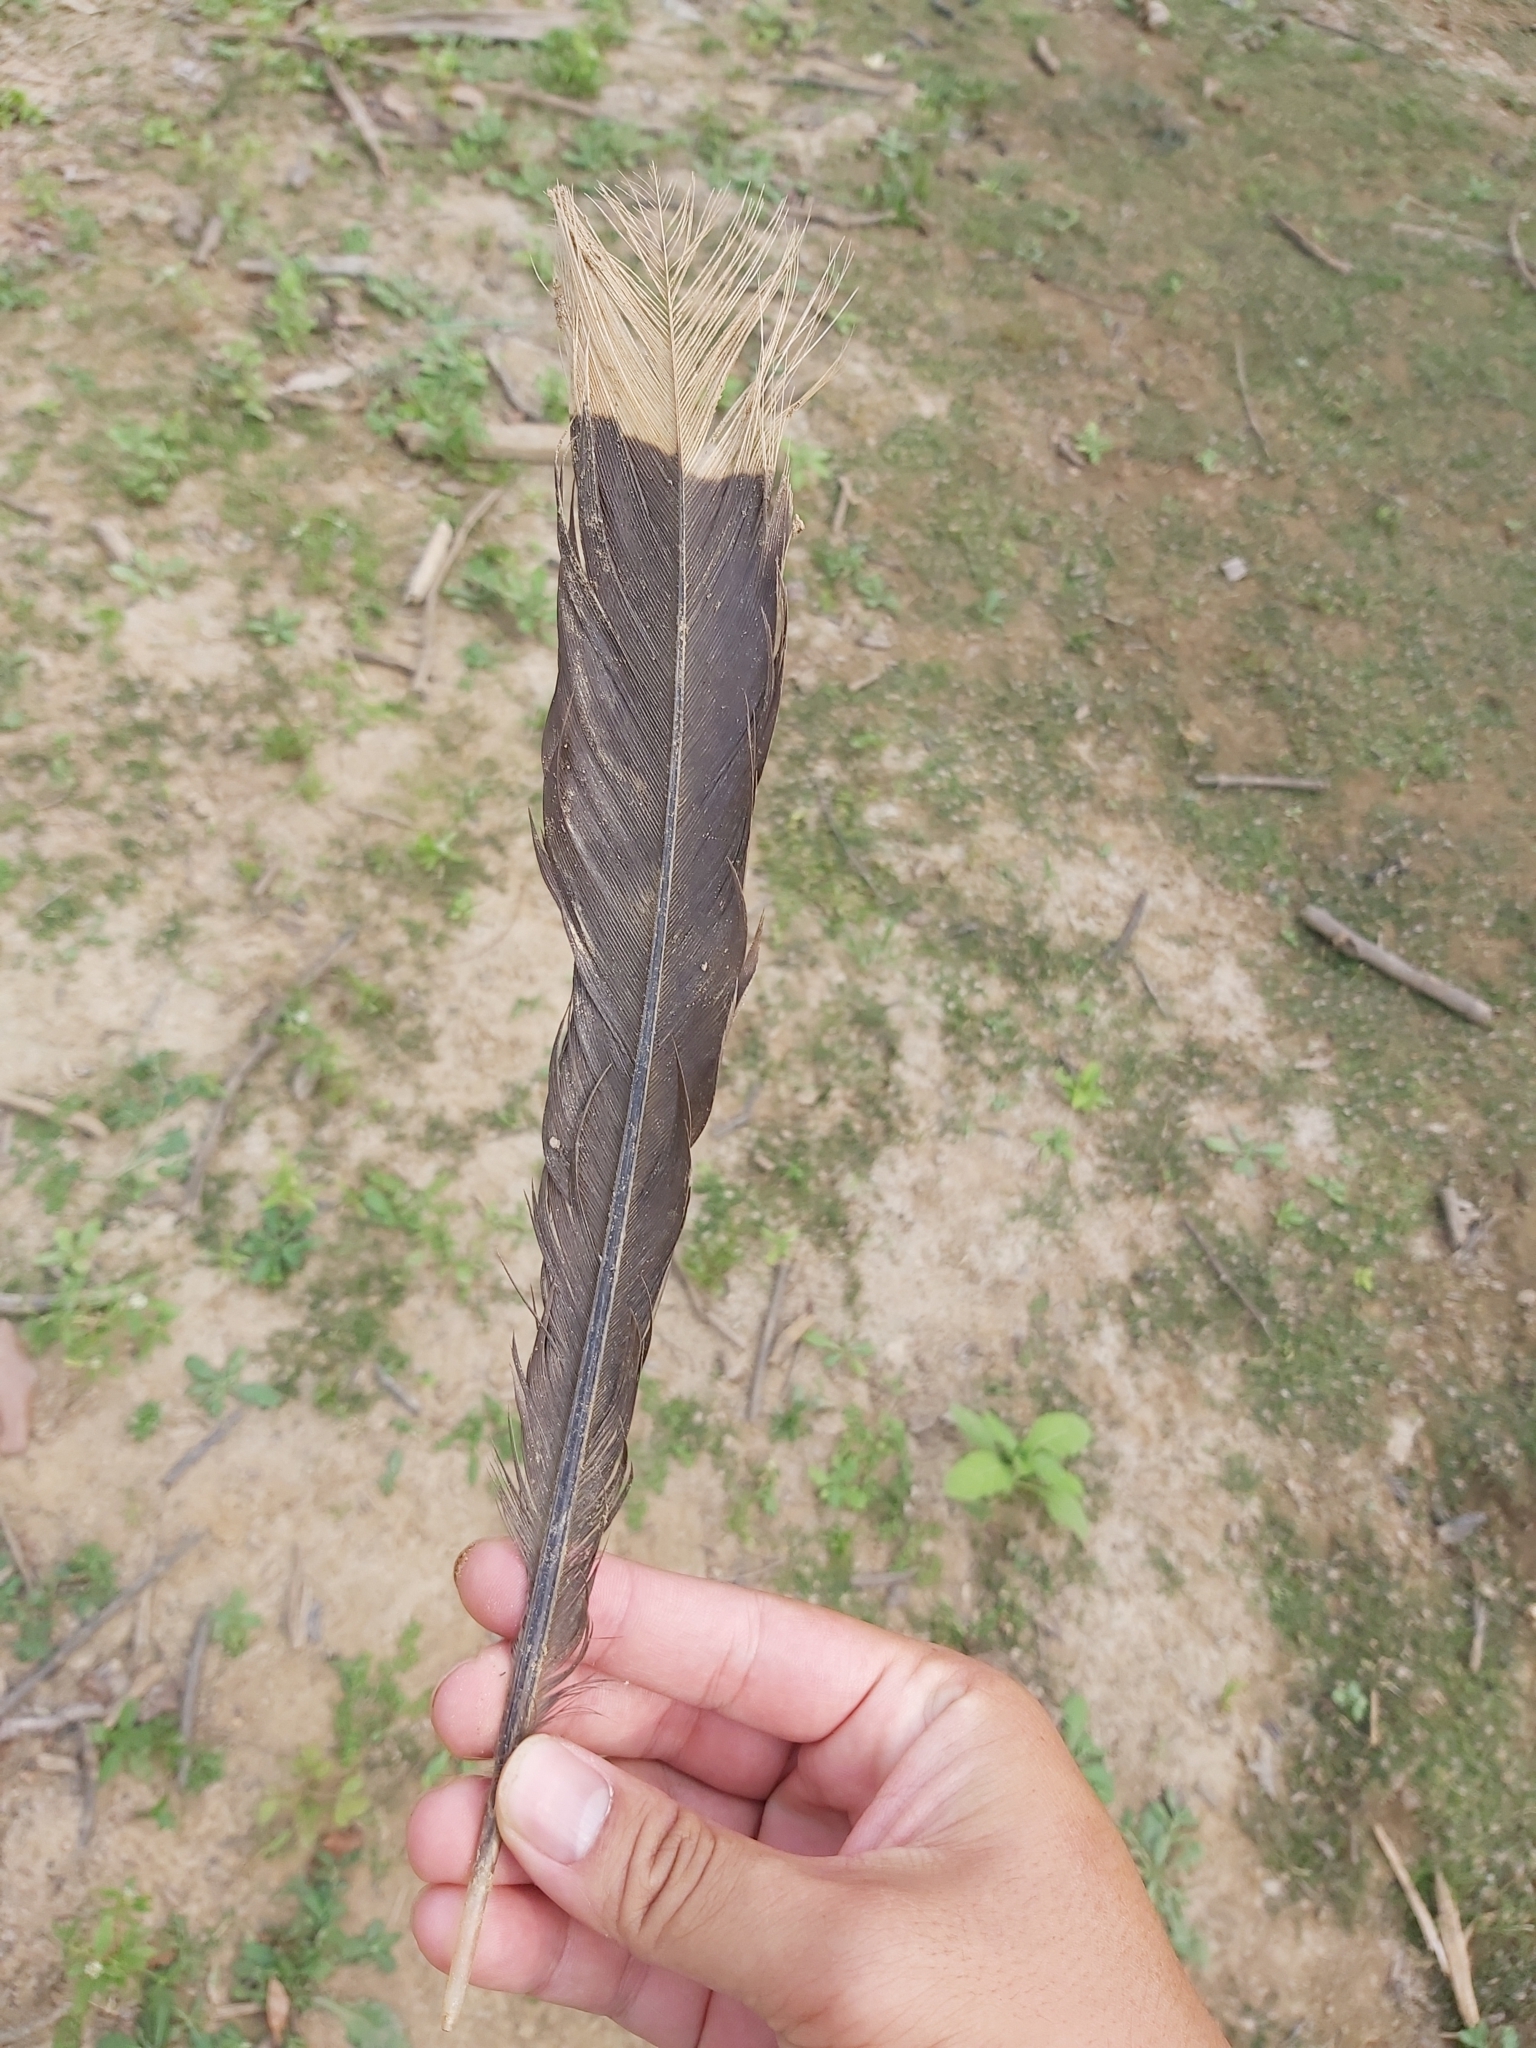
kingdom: Animalia
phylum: Chordata
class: Aves
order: Opisthocomiformes
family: Opisthocomidae
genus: Opisthocomus
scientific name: Opisthocomus hoazin
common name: Hoatzin
